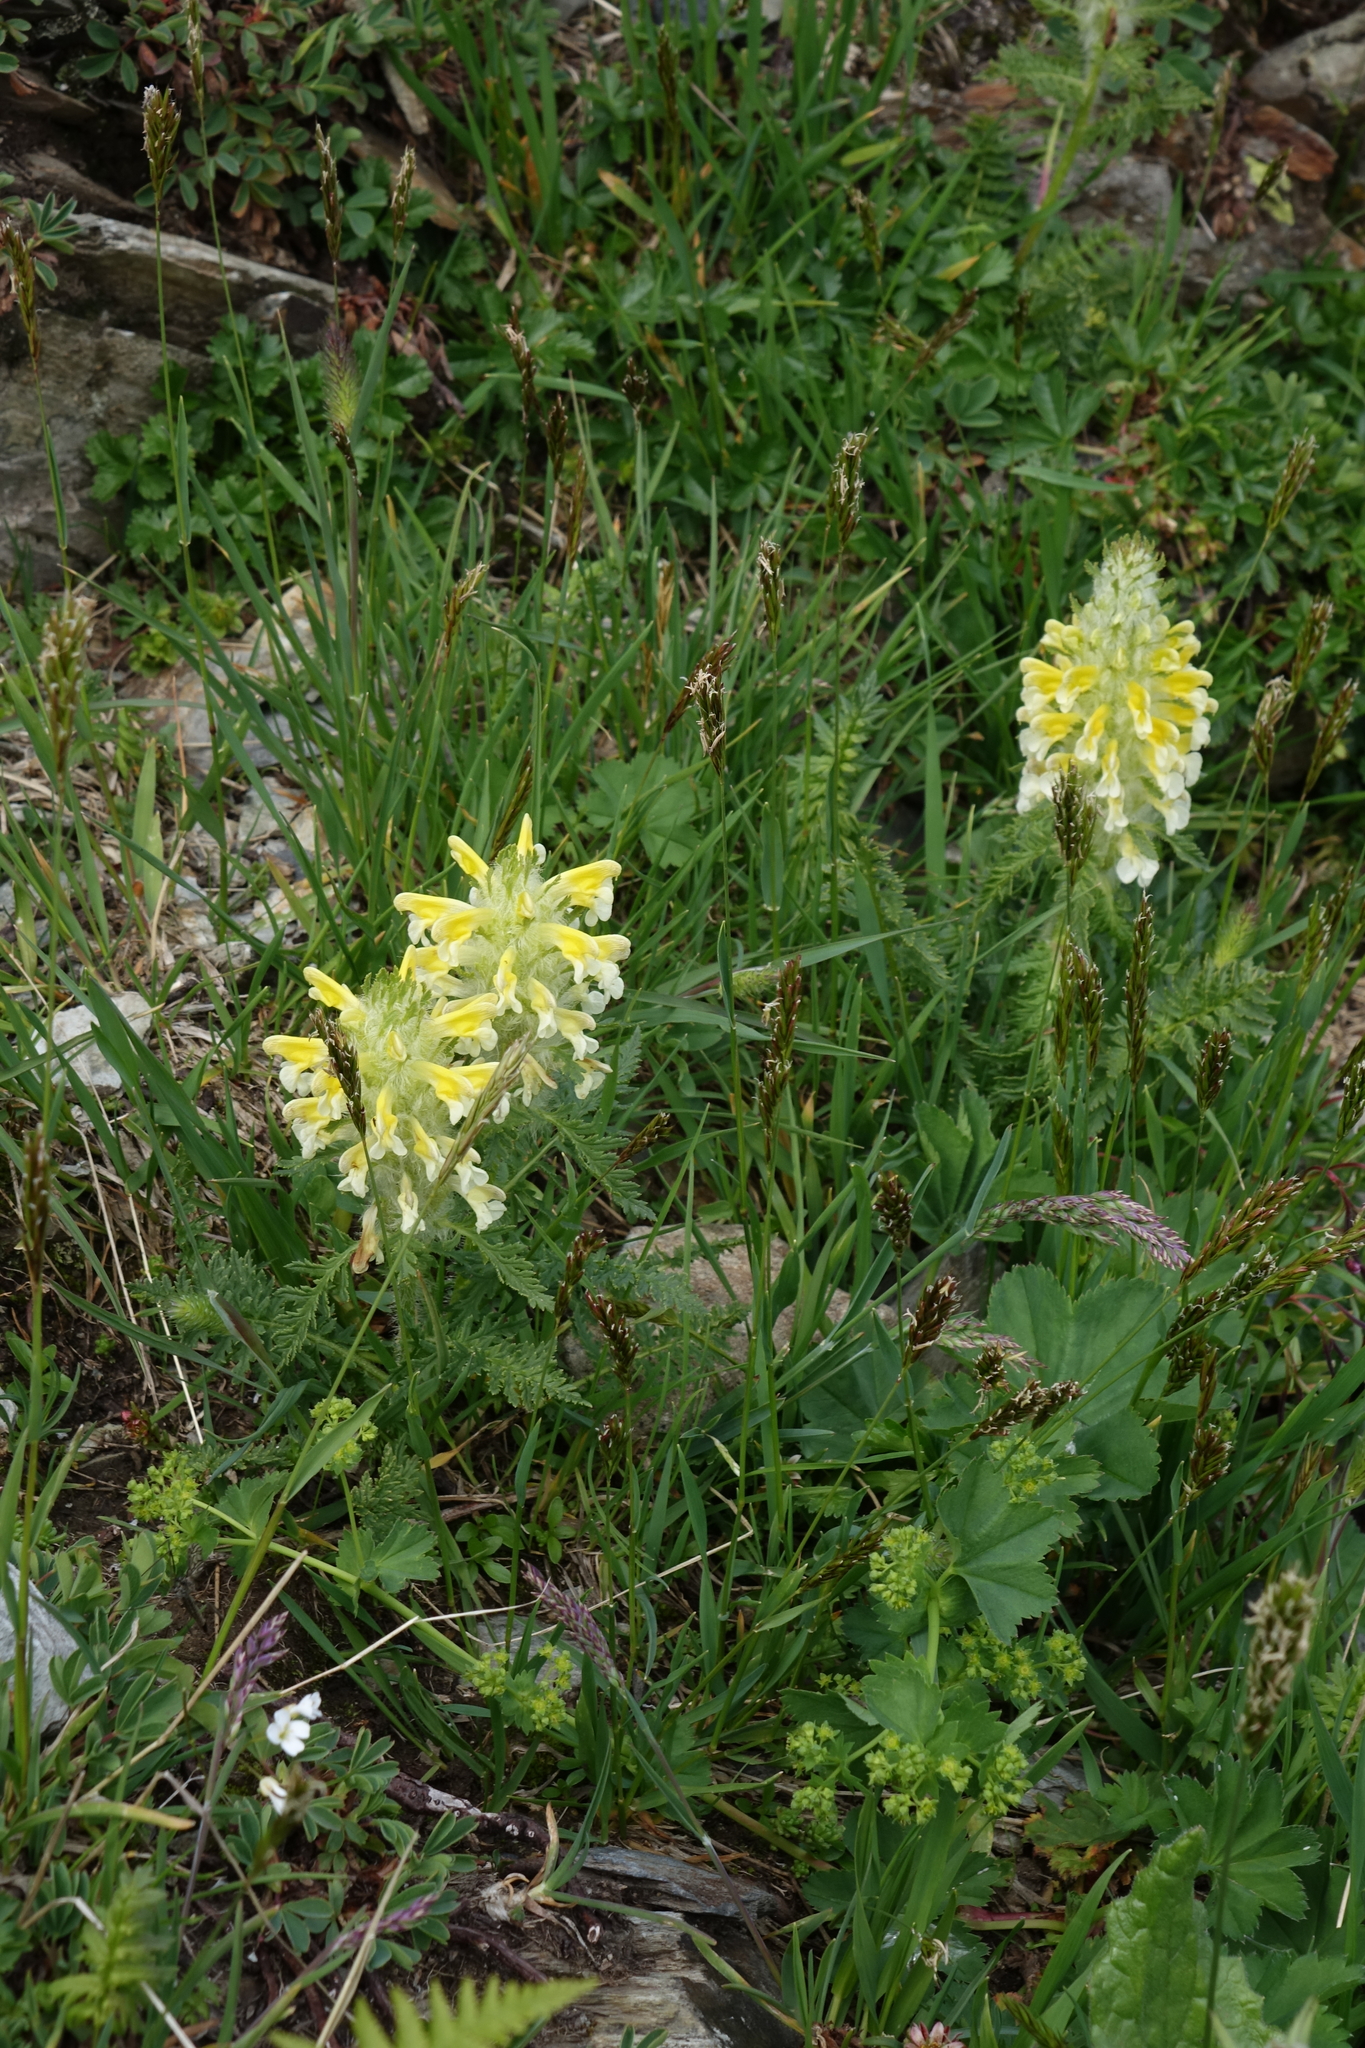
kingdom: Plantae
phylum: Tracheophyta
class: Magnoliopsida
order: Lamiales
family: Orobanchaceae
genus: Pedicularis
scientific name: Pedicularis condensata
